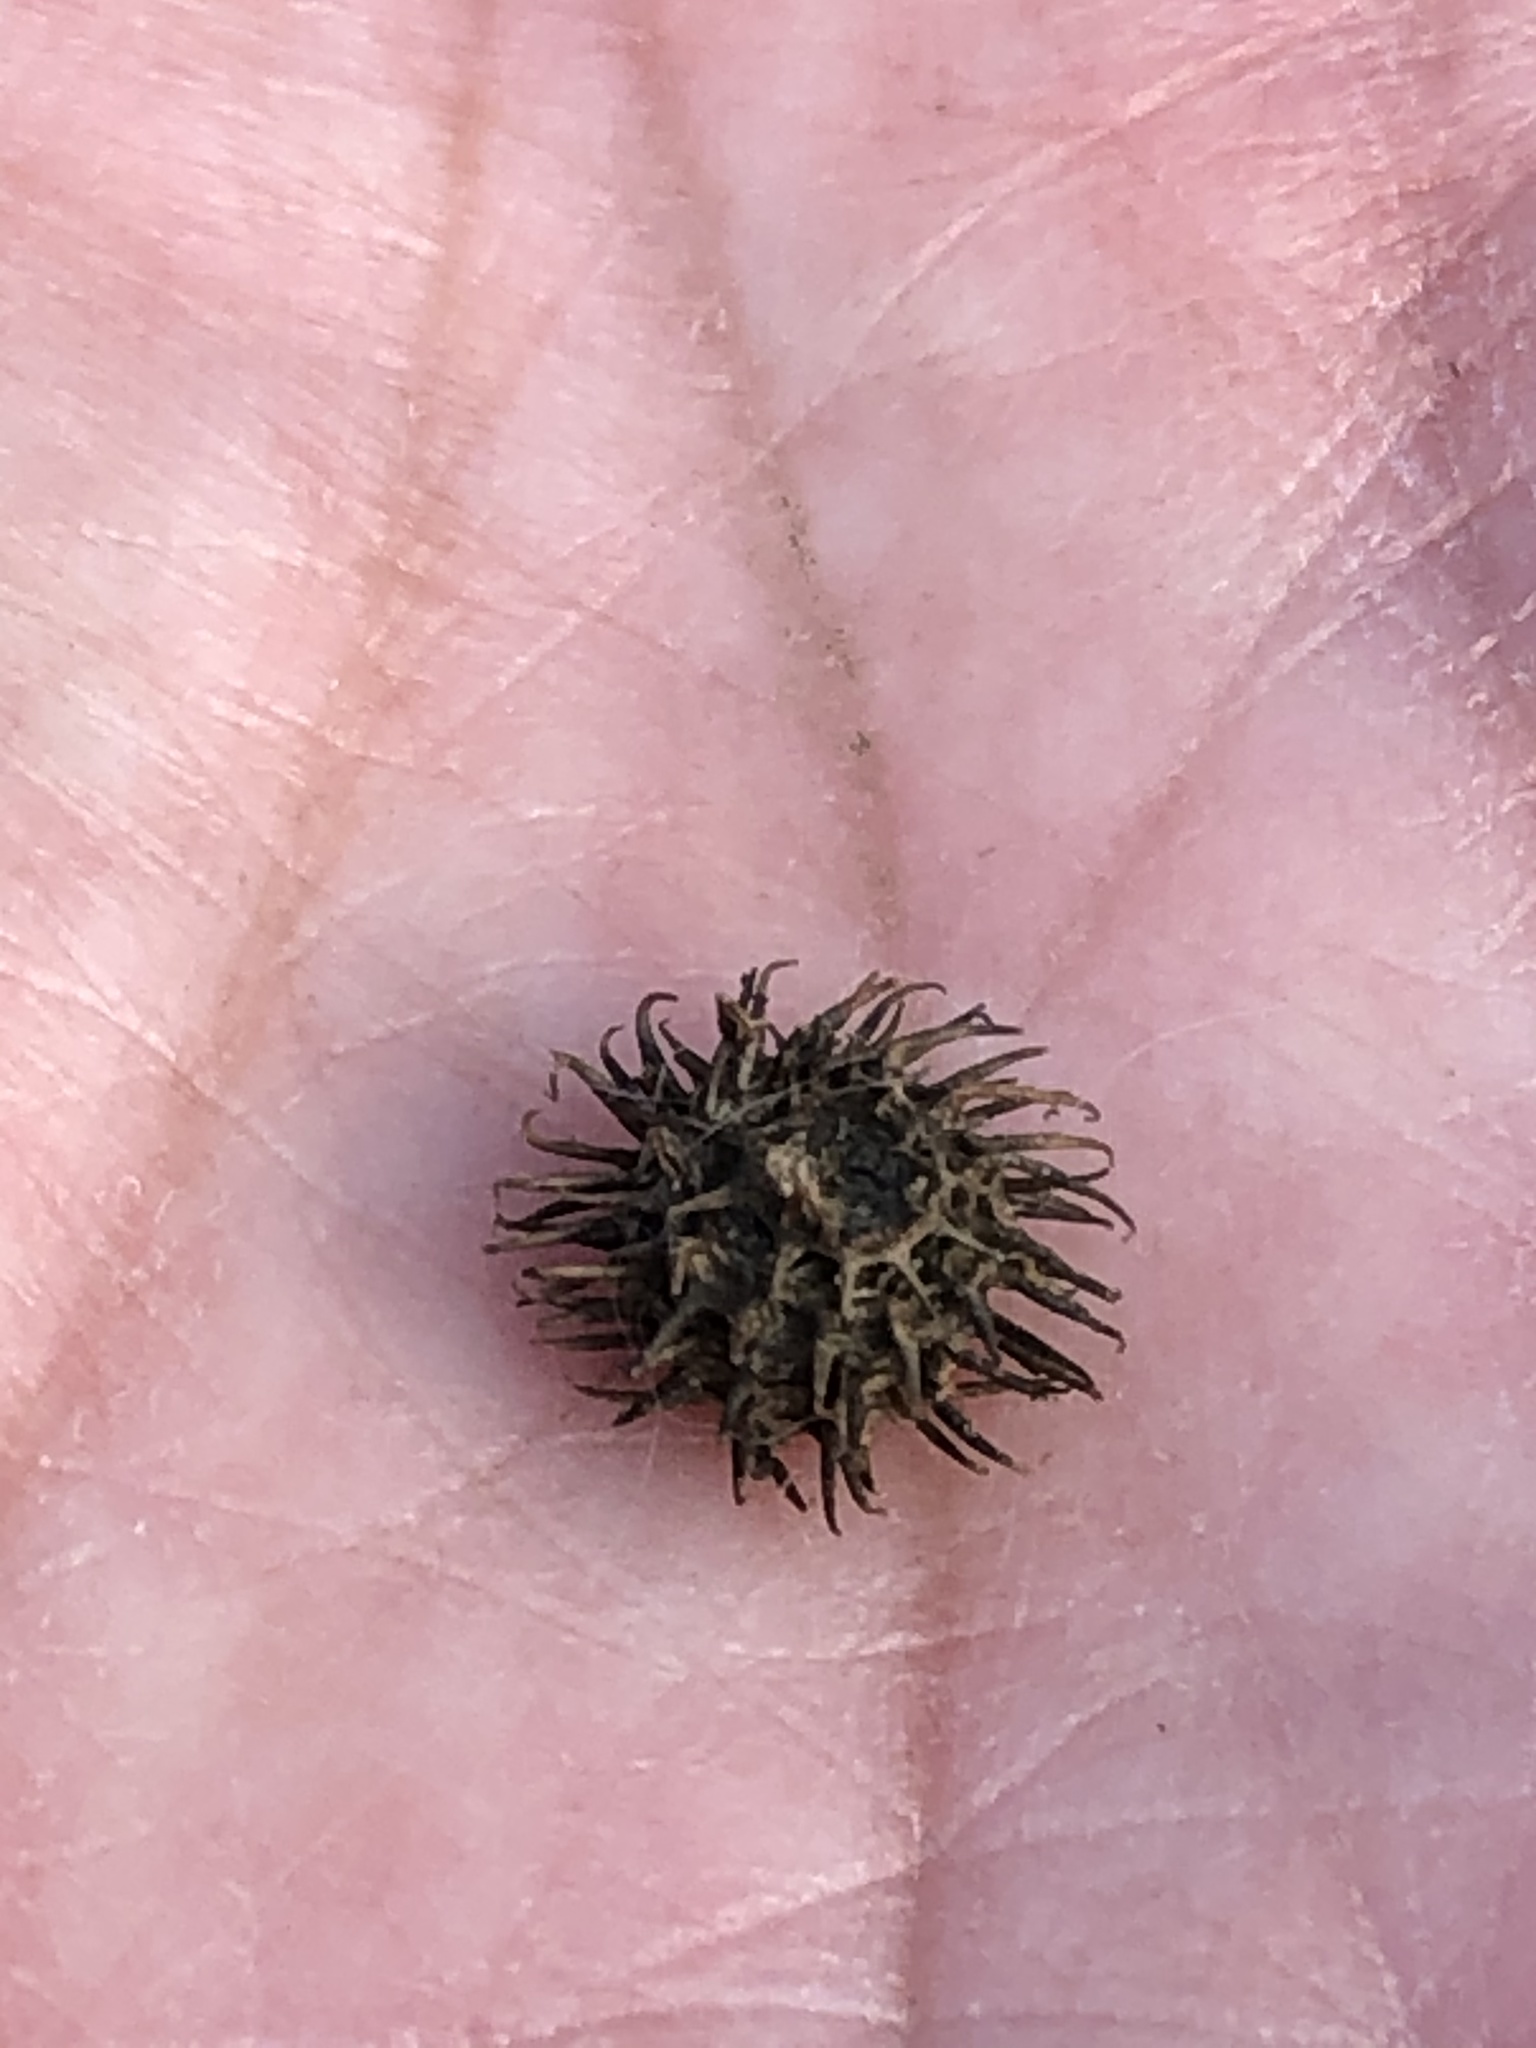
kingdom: Plantae
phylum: Tracheophyta
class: Magnoliopsida
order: Fabales
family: Fabaceae
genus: Medicago
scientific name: Medicago
